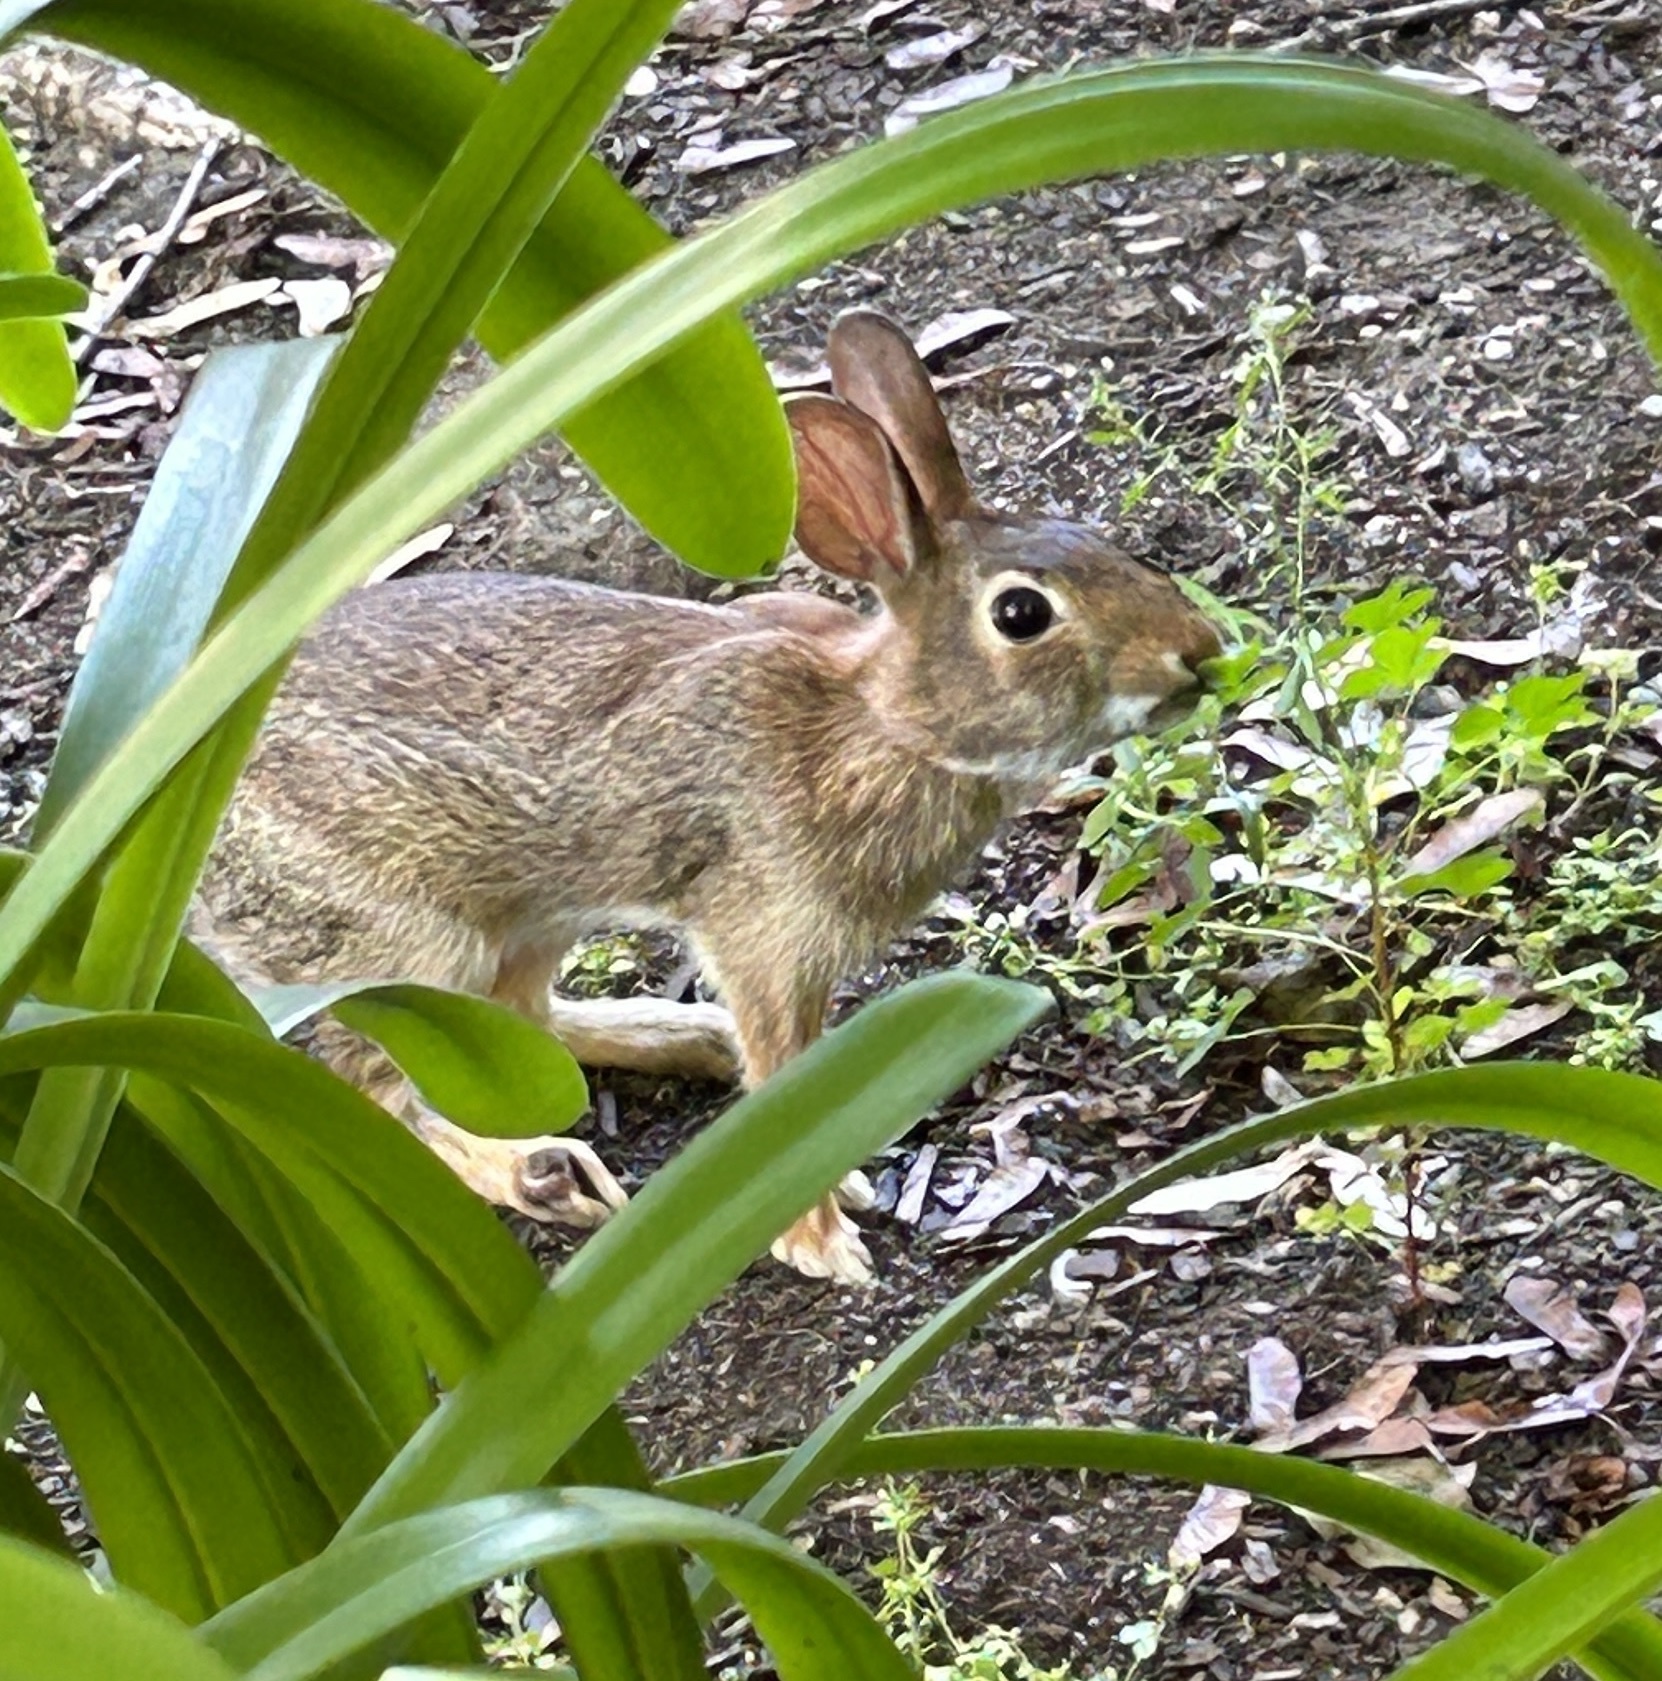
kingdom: Animalia
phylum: Chordata
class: Mammalia
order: Lagomorpha
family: Leporidae
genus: Sylvilagus
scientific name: Sylvilagus floridanus
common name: Eastern cottontail
